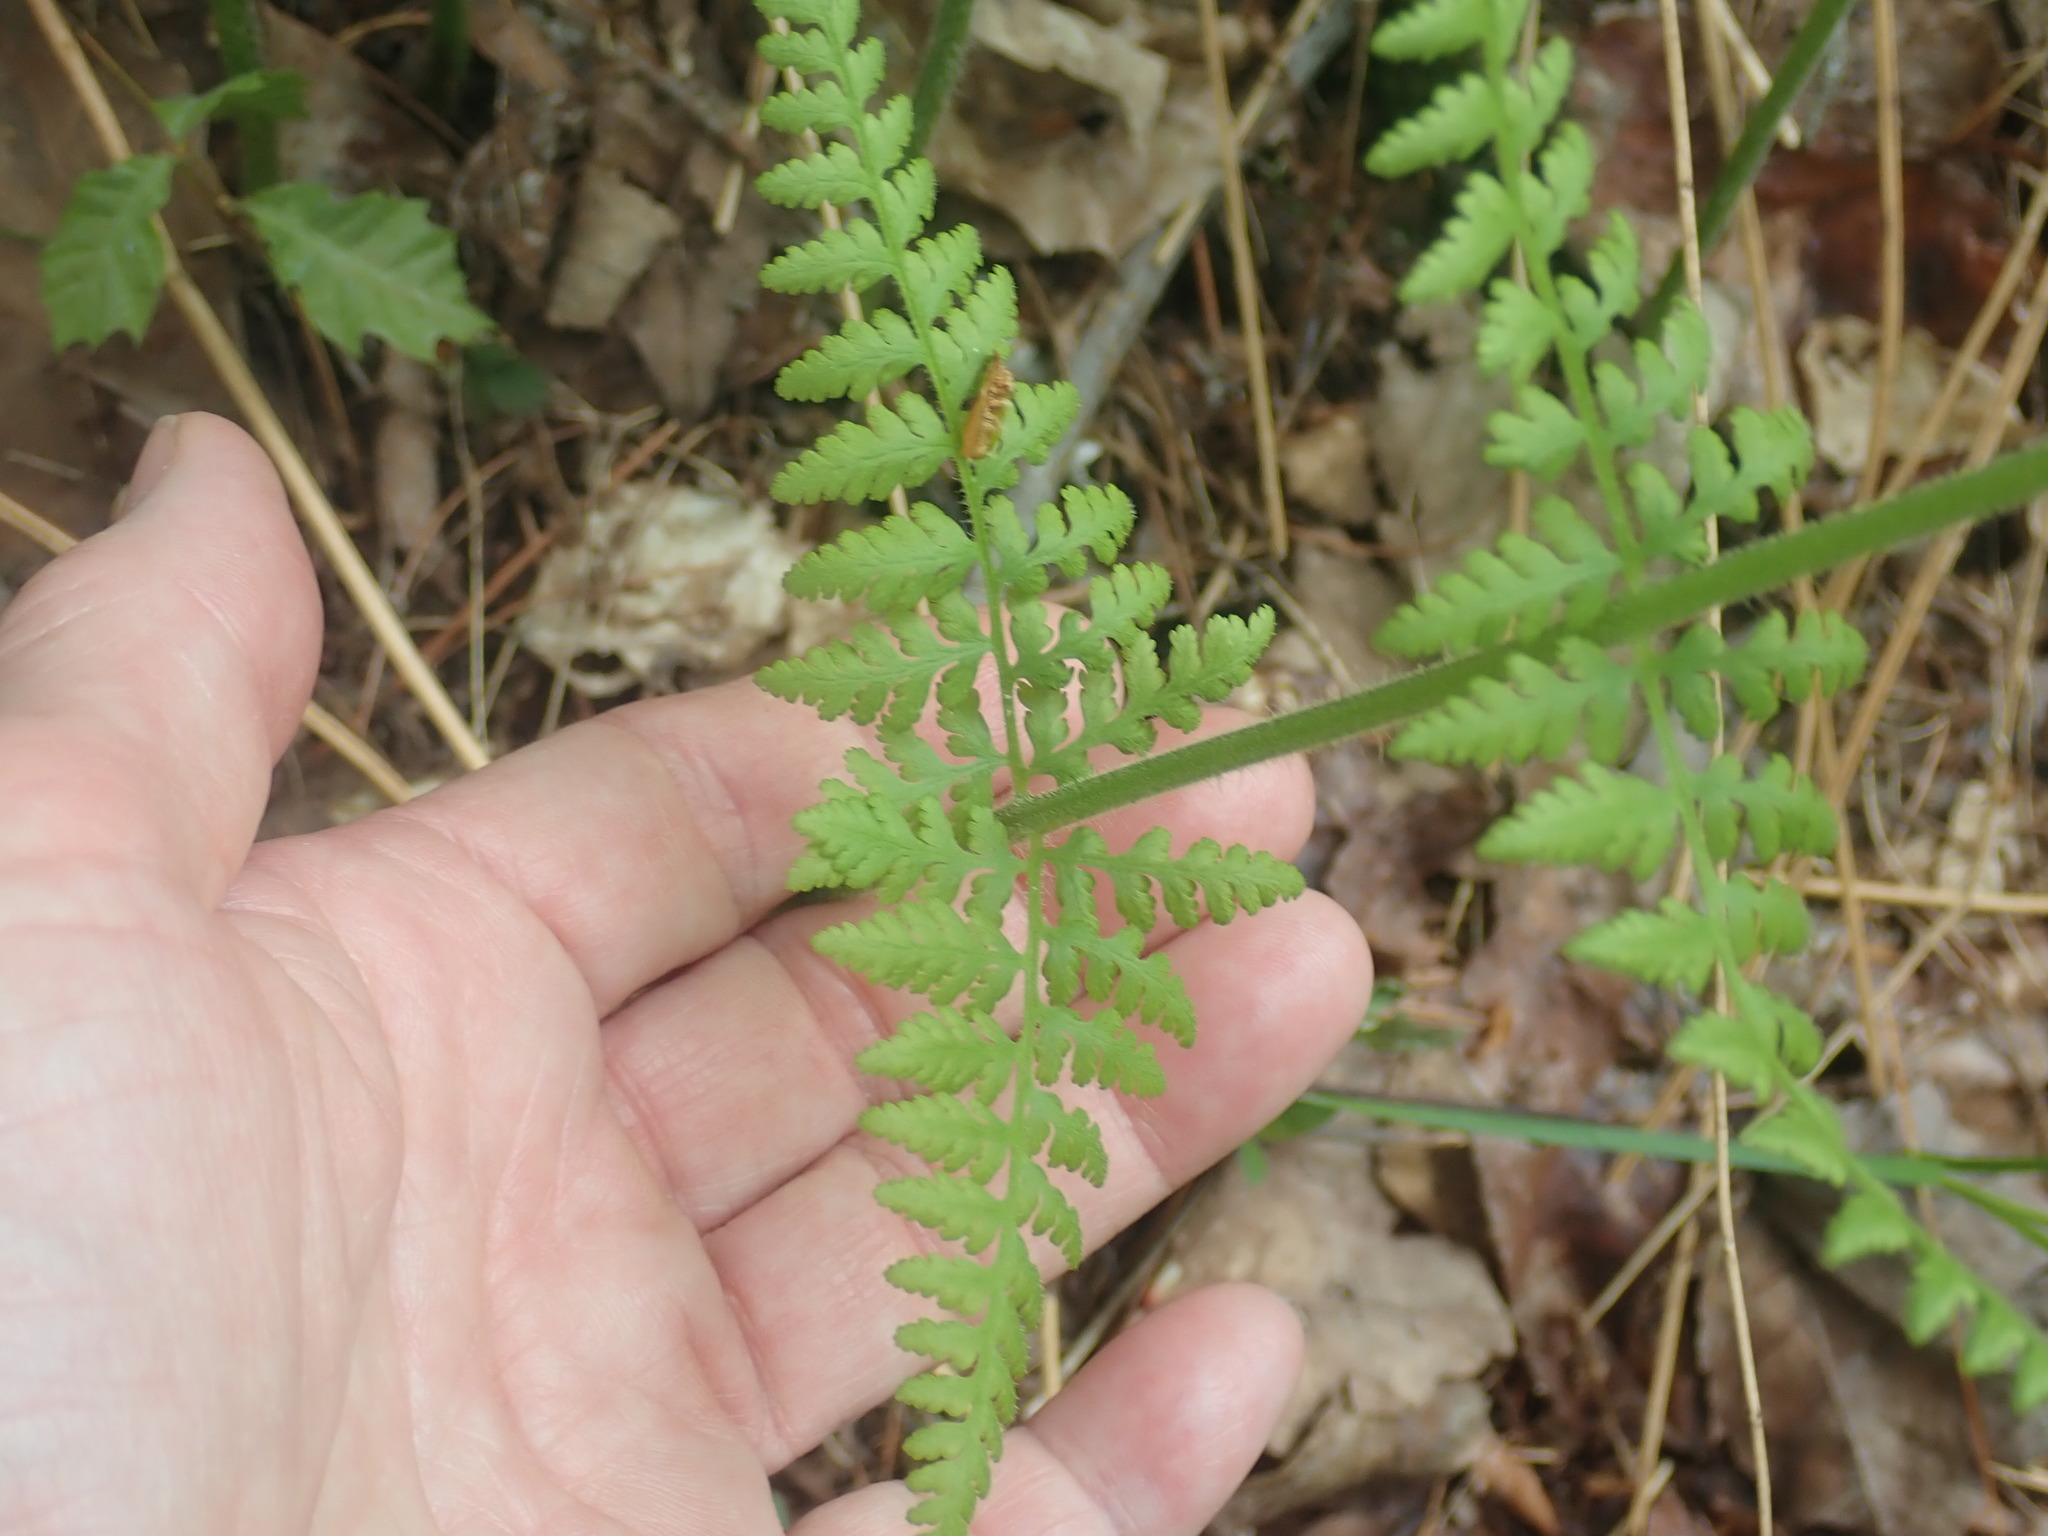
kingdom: Plantae
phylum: Tracheophyta
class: Polypodiopsida
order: Polypodiales
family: Dennstaedtiaceae
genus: Sitobolium
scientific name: Sitobolium punctilobum
